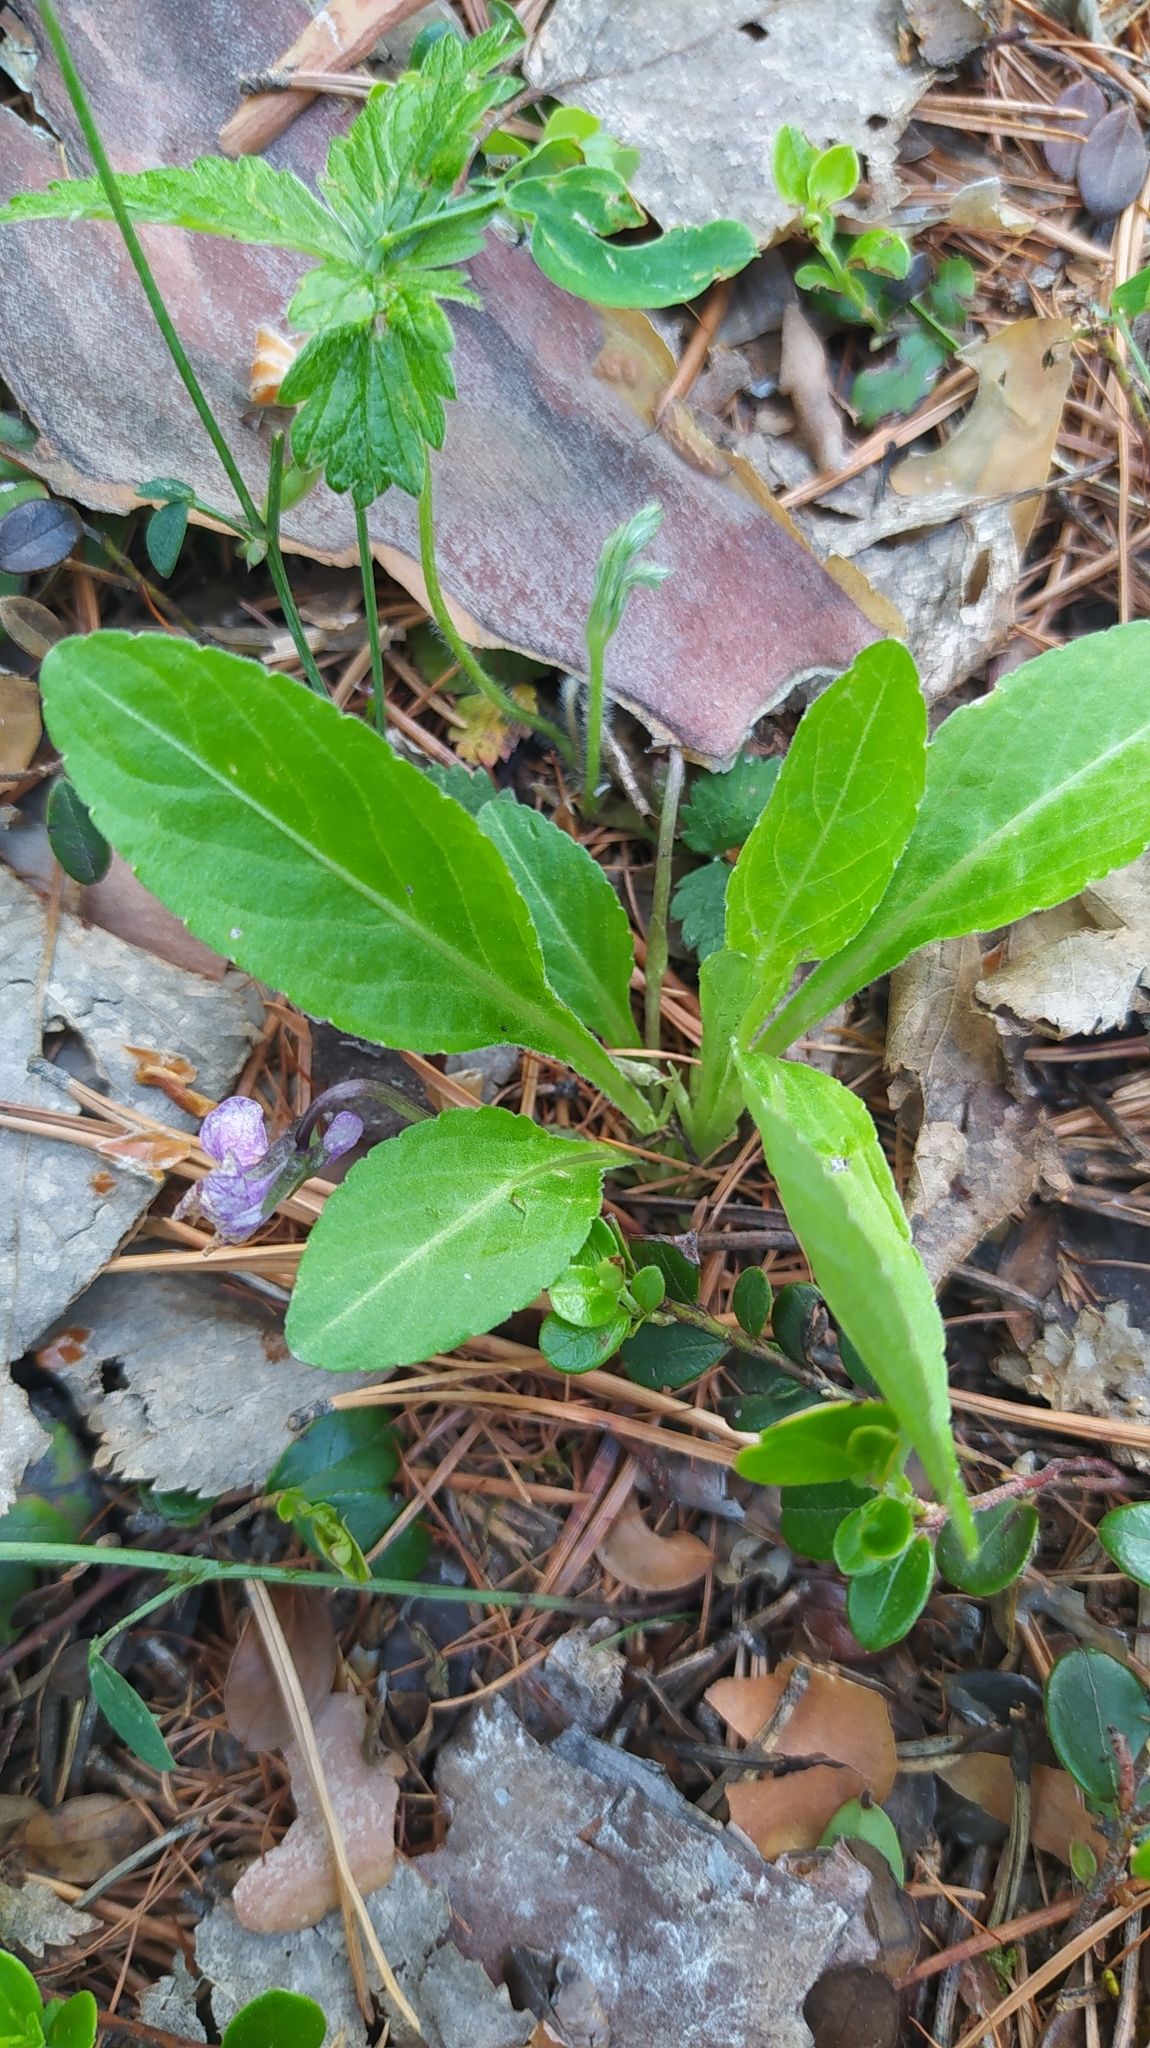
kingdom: Plantae
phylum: Tracheophyta
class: Magnoliopsida
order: Malpighiales
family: Violaceae
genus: Viola
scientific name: Viola gmeliniana
